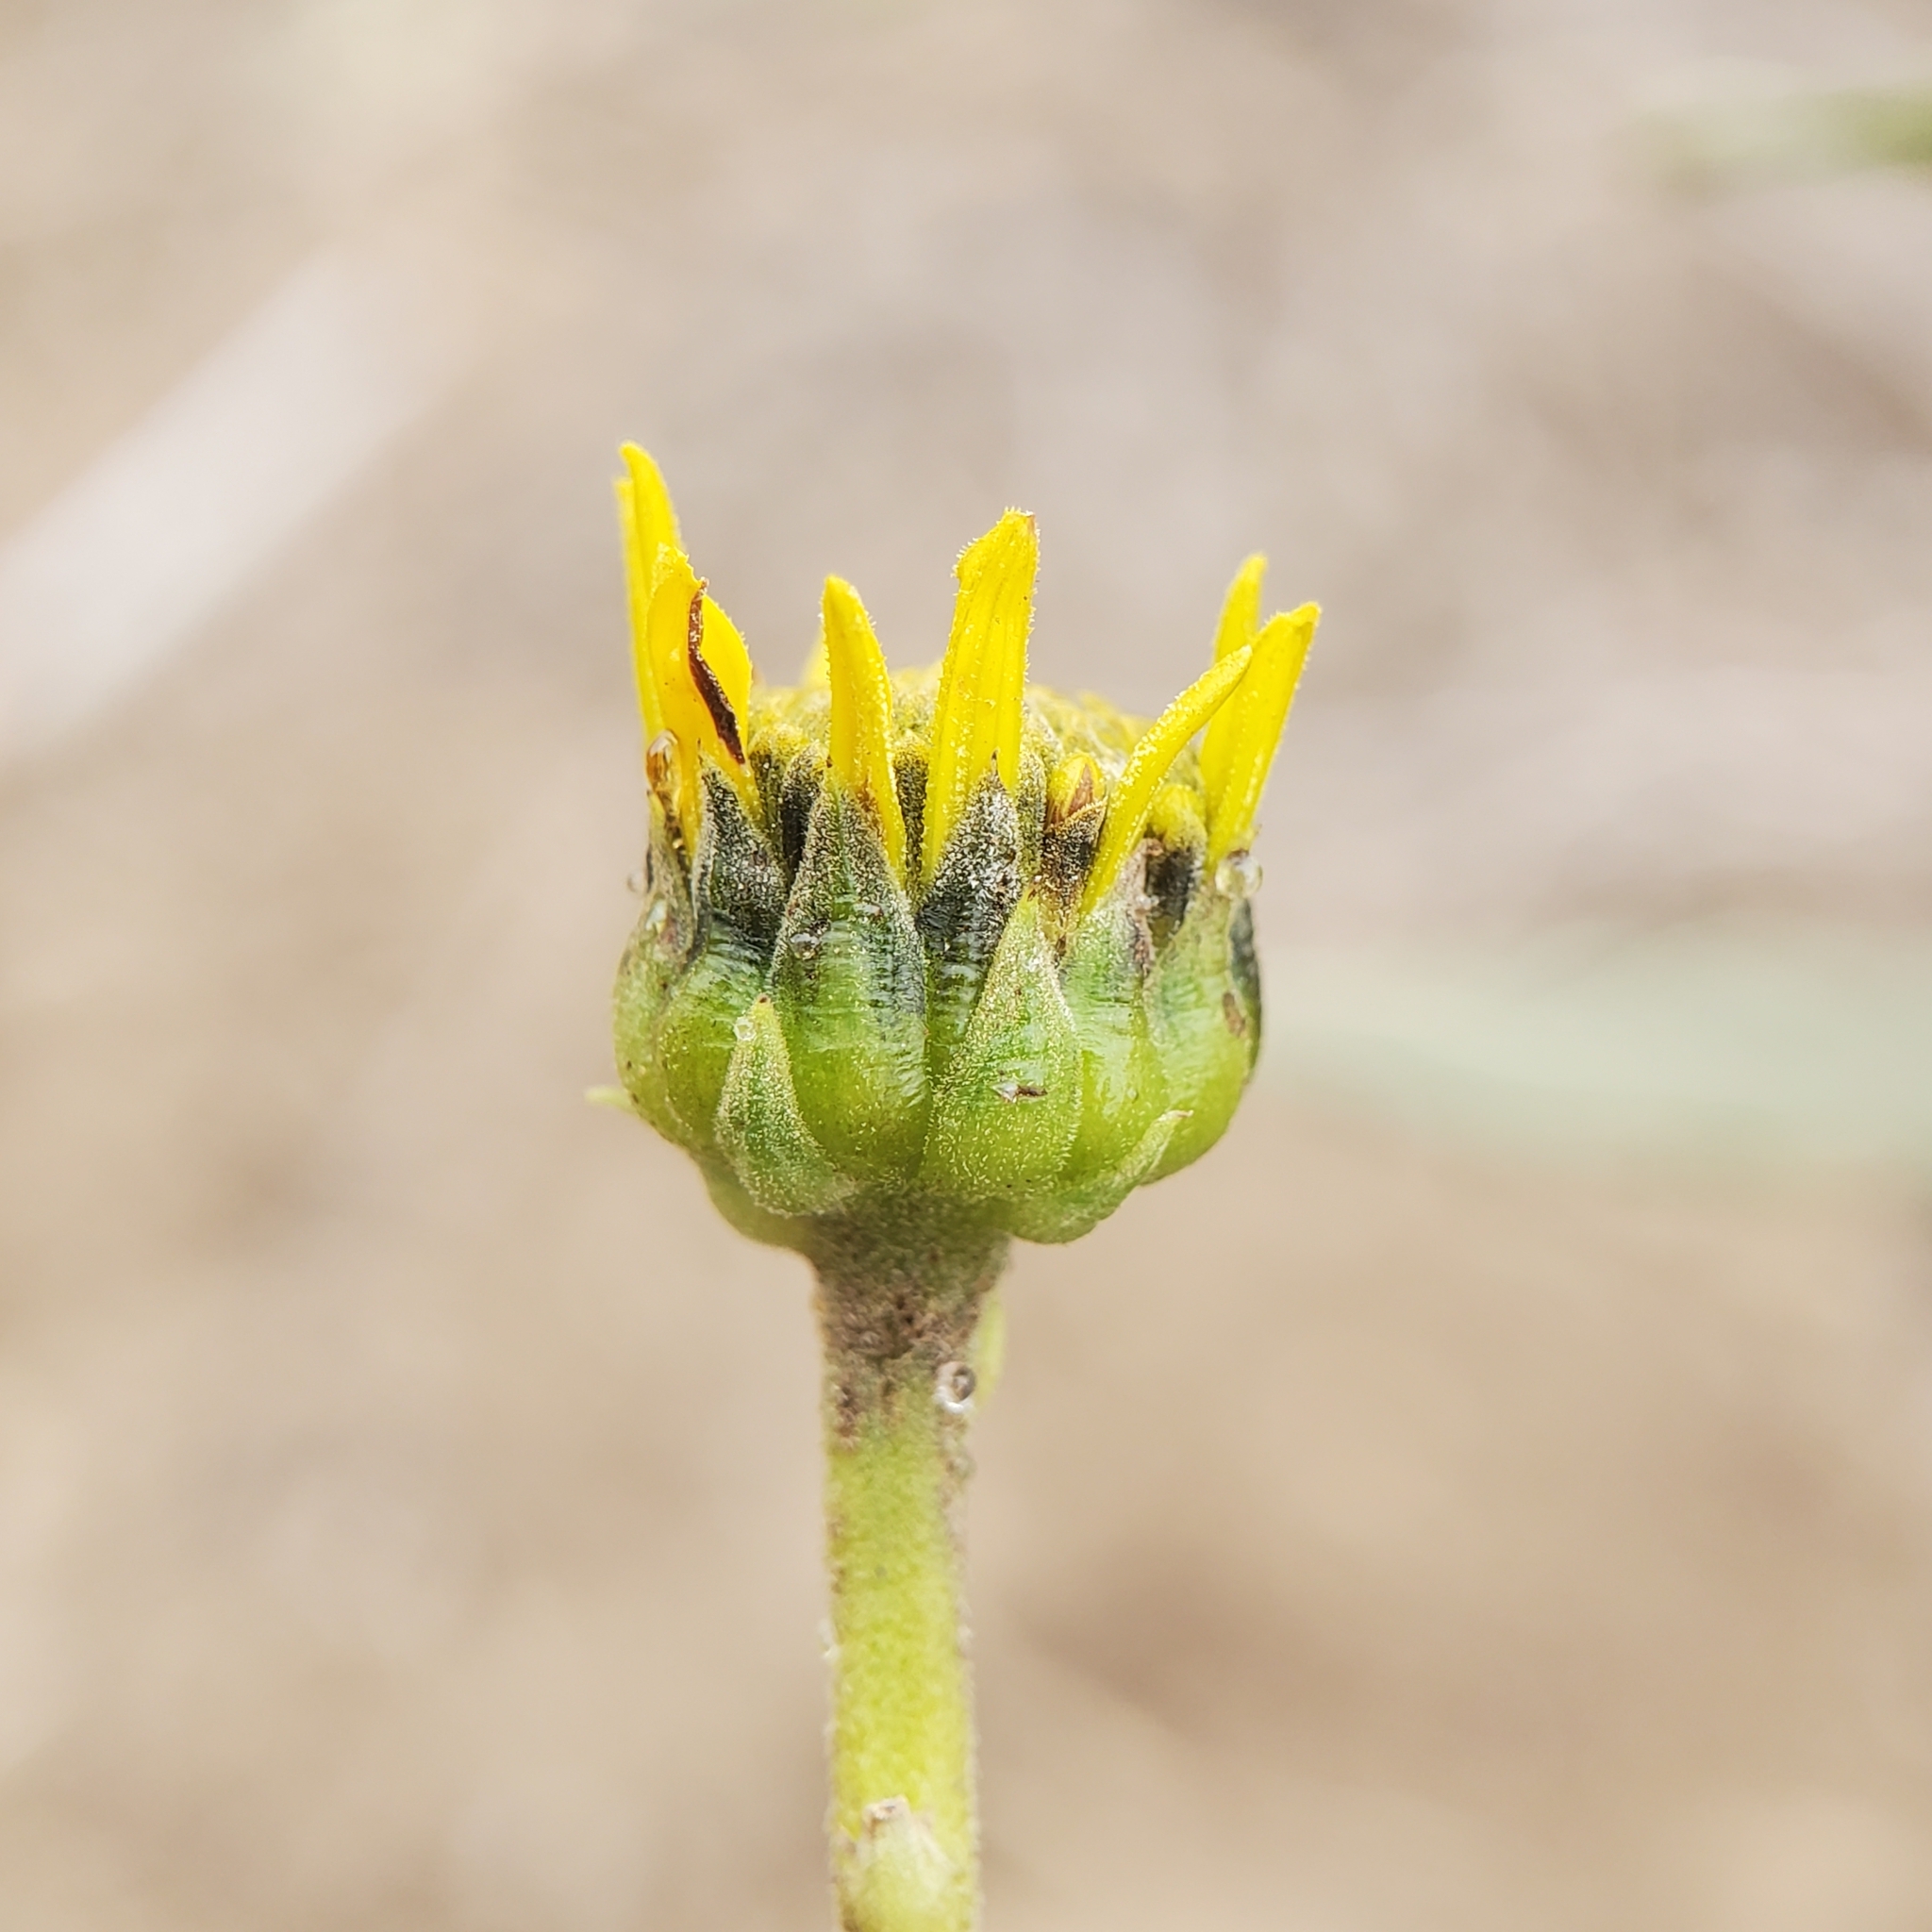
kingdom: Plantae
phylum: Tracheophyta
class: Magnoliopsida
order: Asterales
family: Asteraceae
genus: Helianthus
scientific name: Helianthus gracilentus
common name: Slender sunflower
